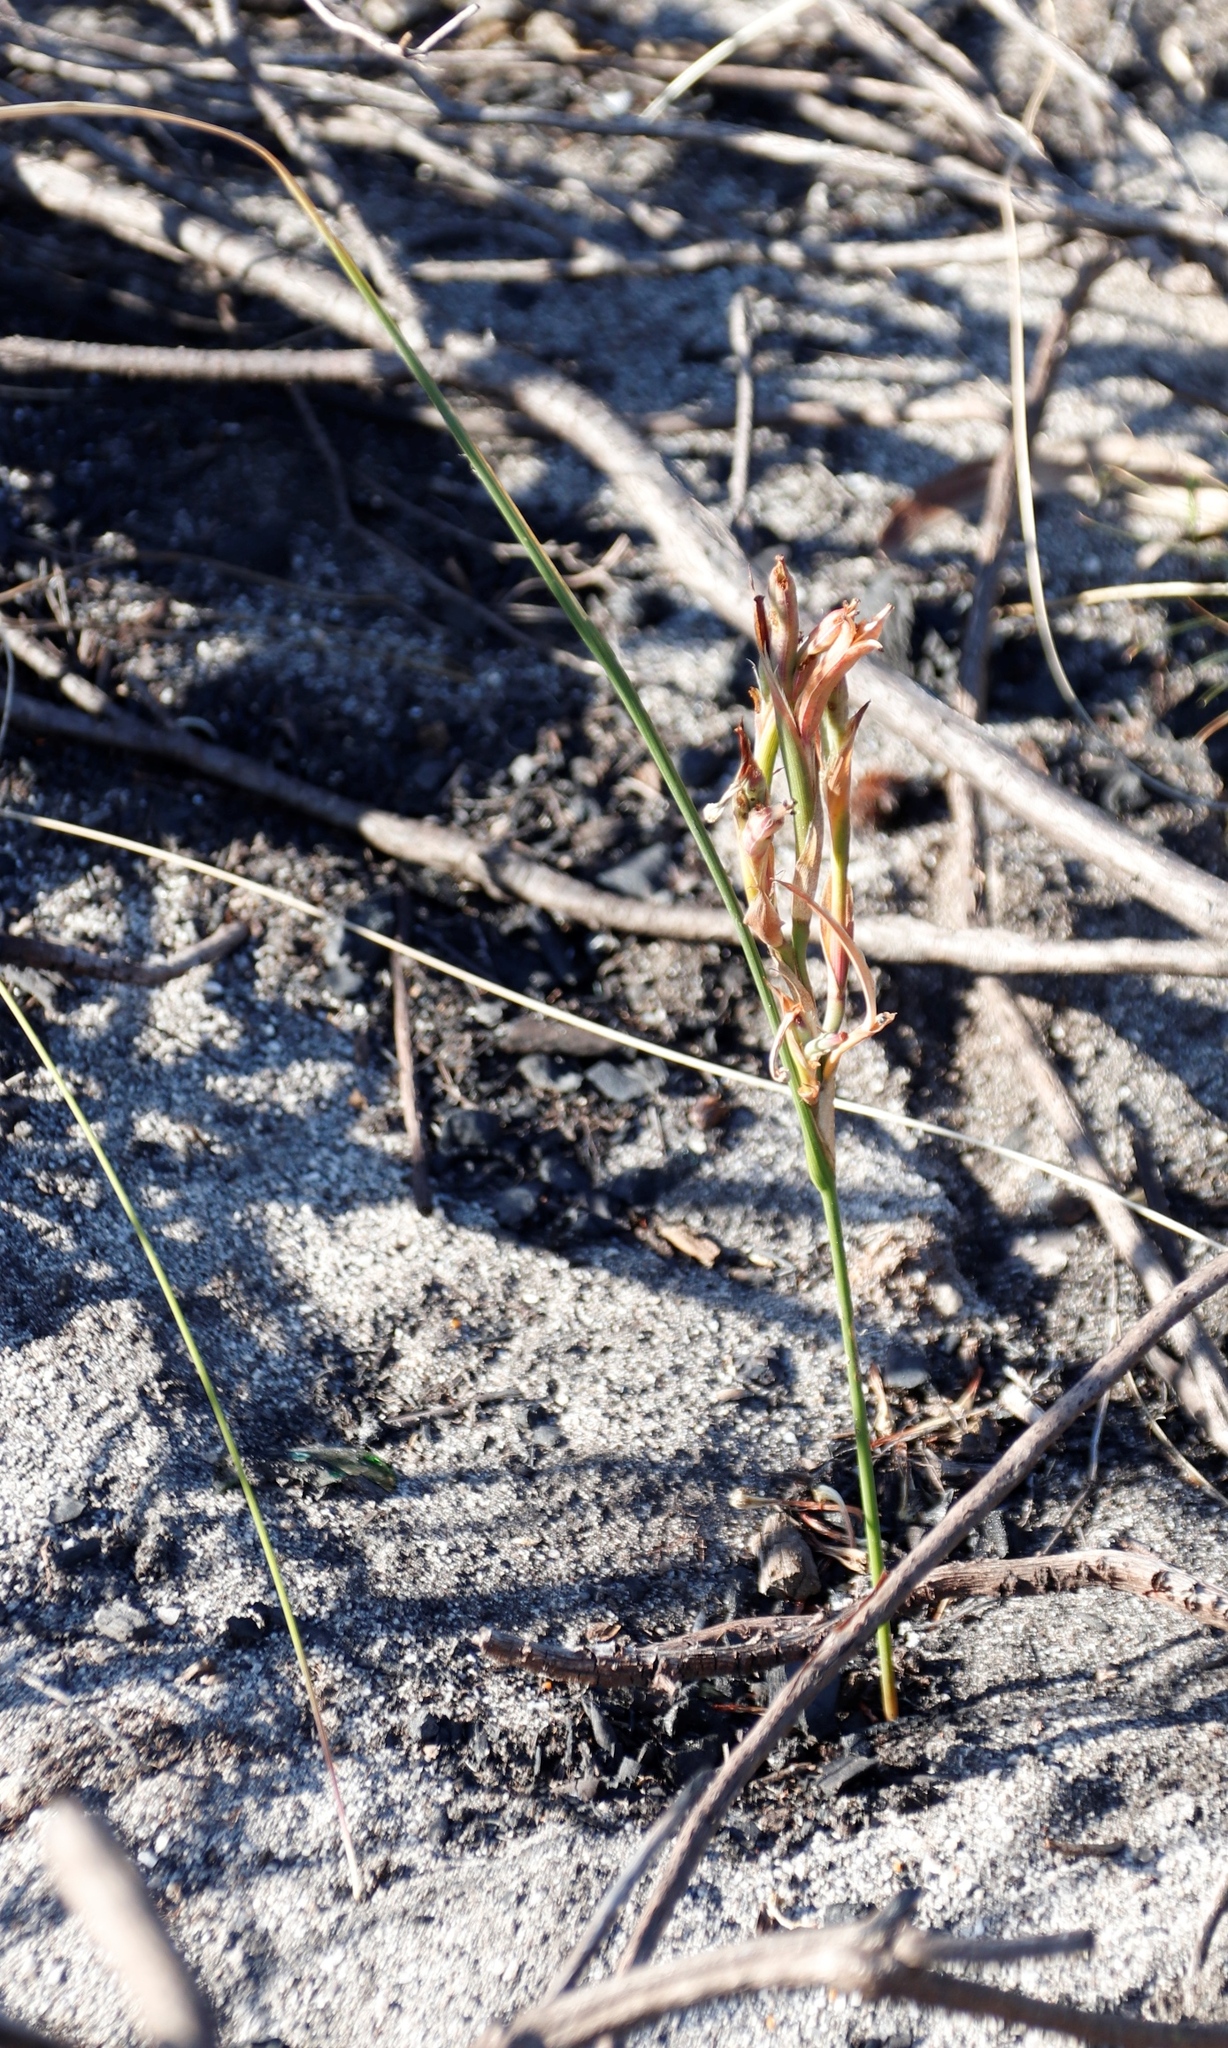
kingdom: Plantae
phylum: Tracheophyta
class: Liliopsida
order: Asparagales
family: Iridaceae
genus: Moraea
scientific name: Moraea fugax
